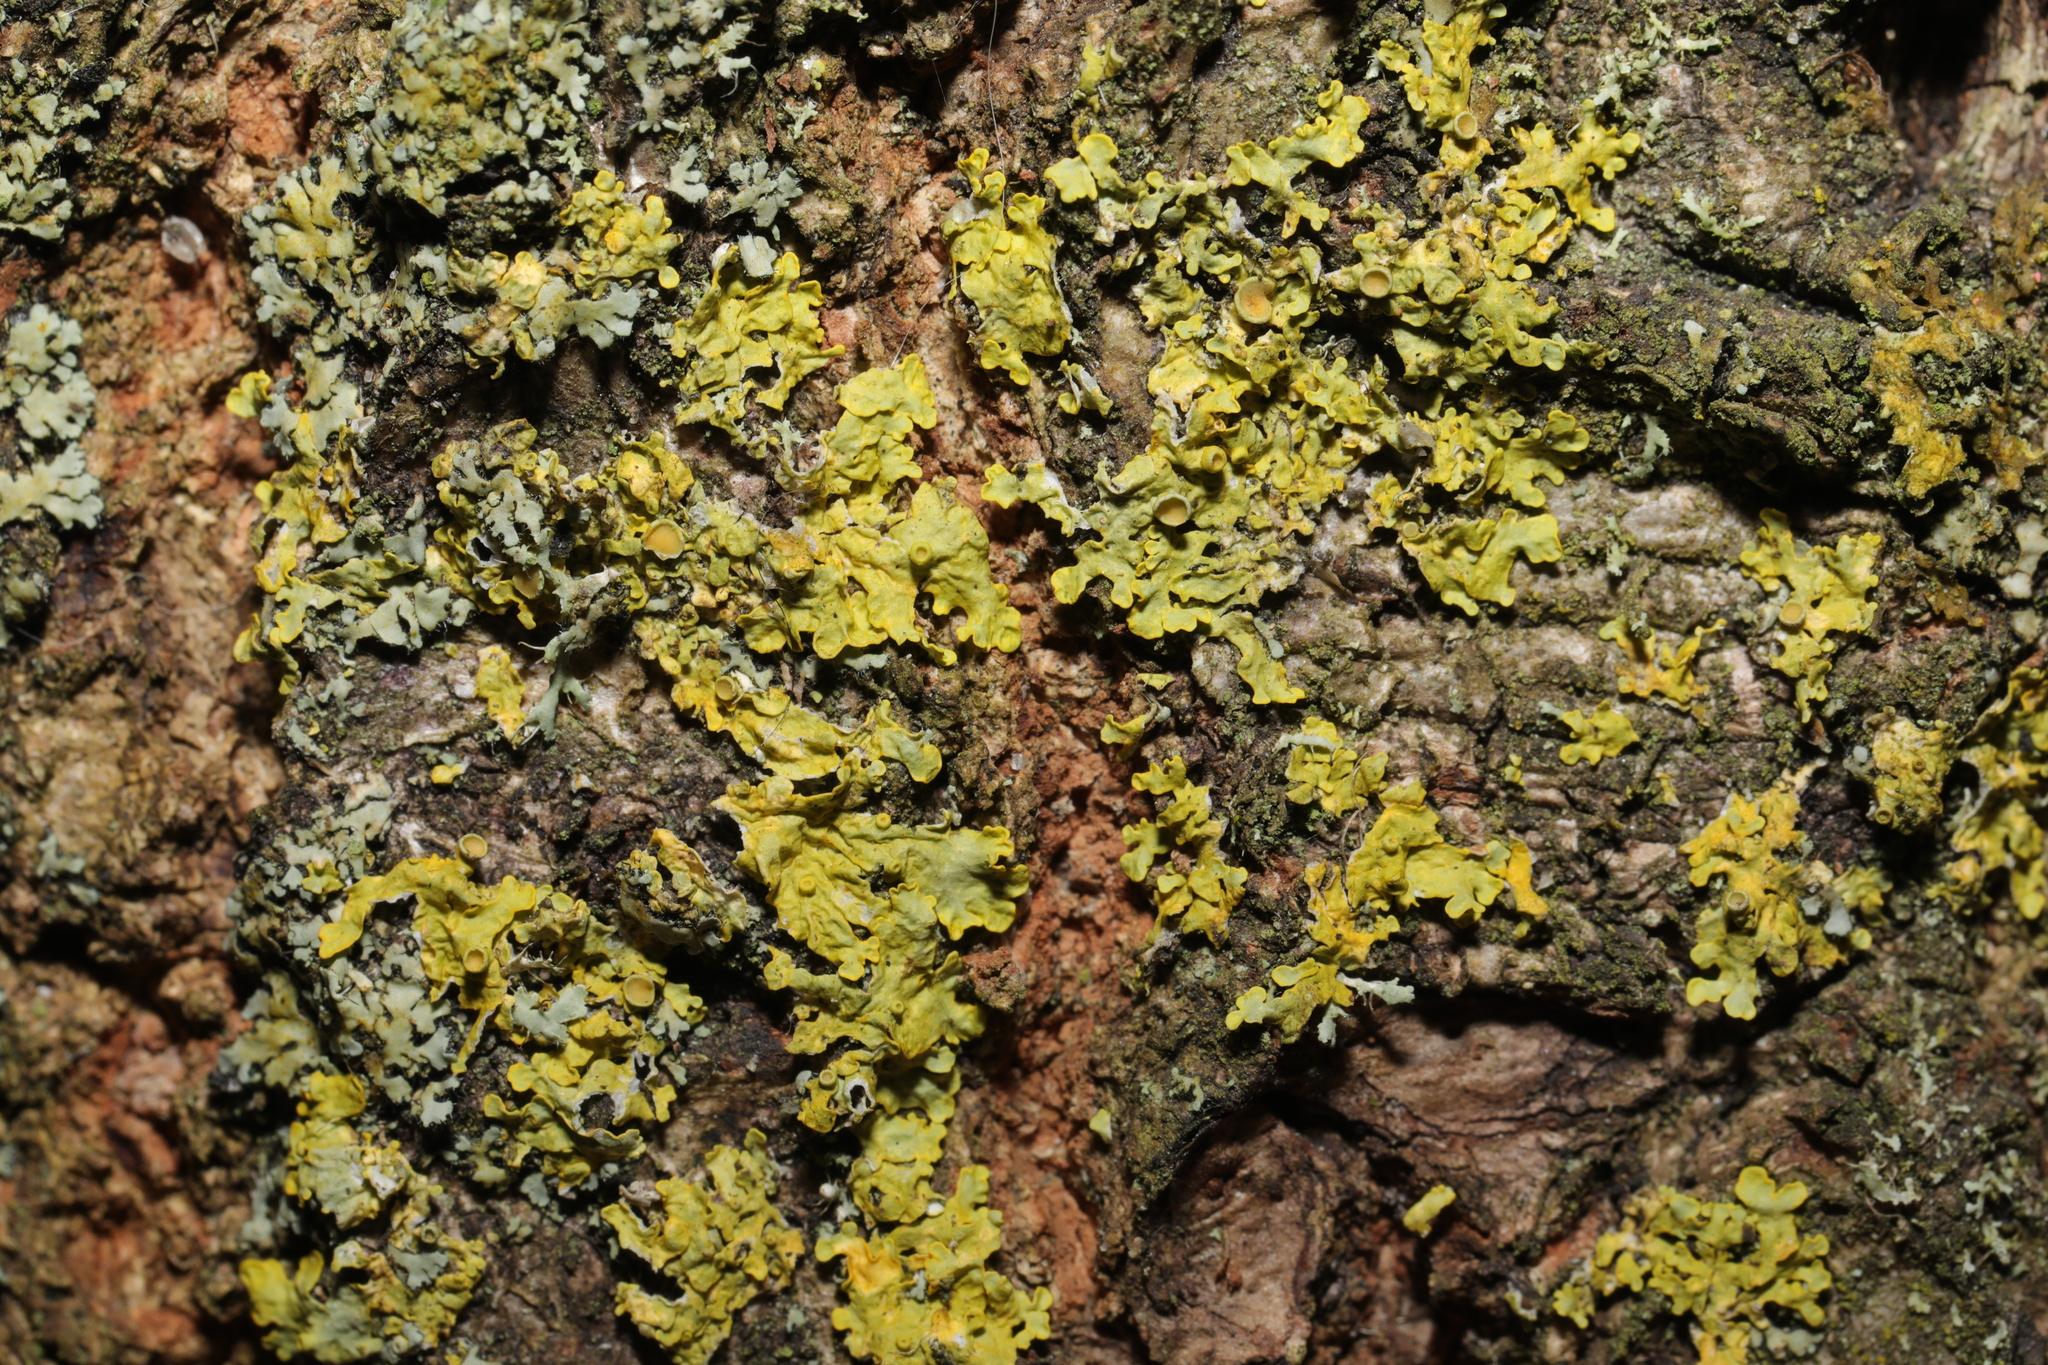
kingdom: Fungi
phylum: Ascomycota
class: Lecanoromycetes
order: Teloschistales
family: Teloschistaceae
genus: Xanthoria
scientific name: Xanthoria parietina
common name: Common orange lichen
